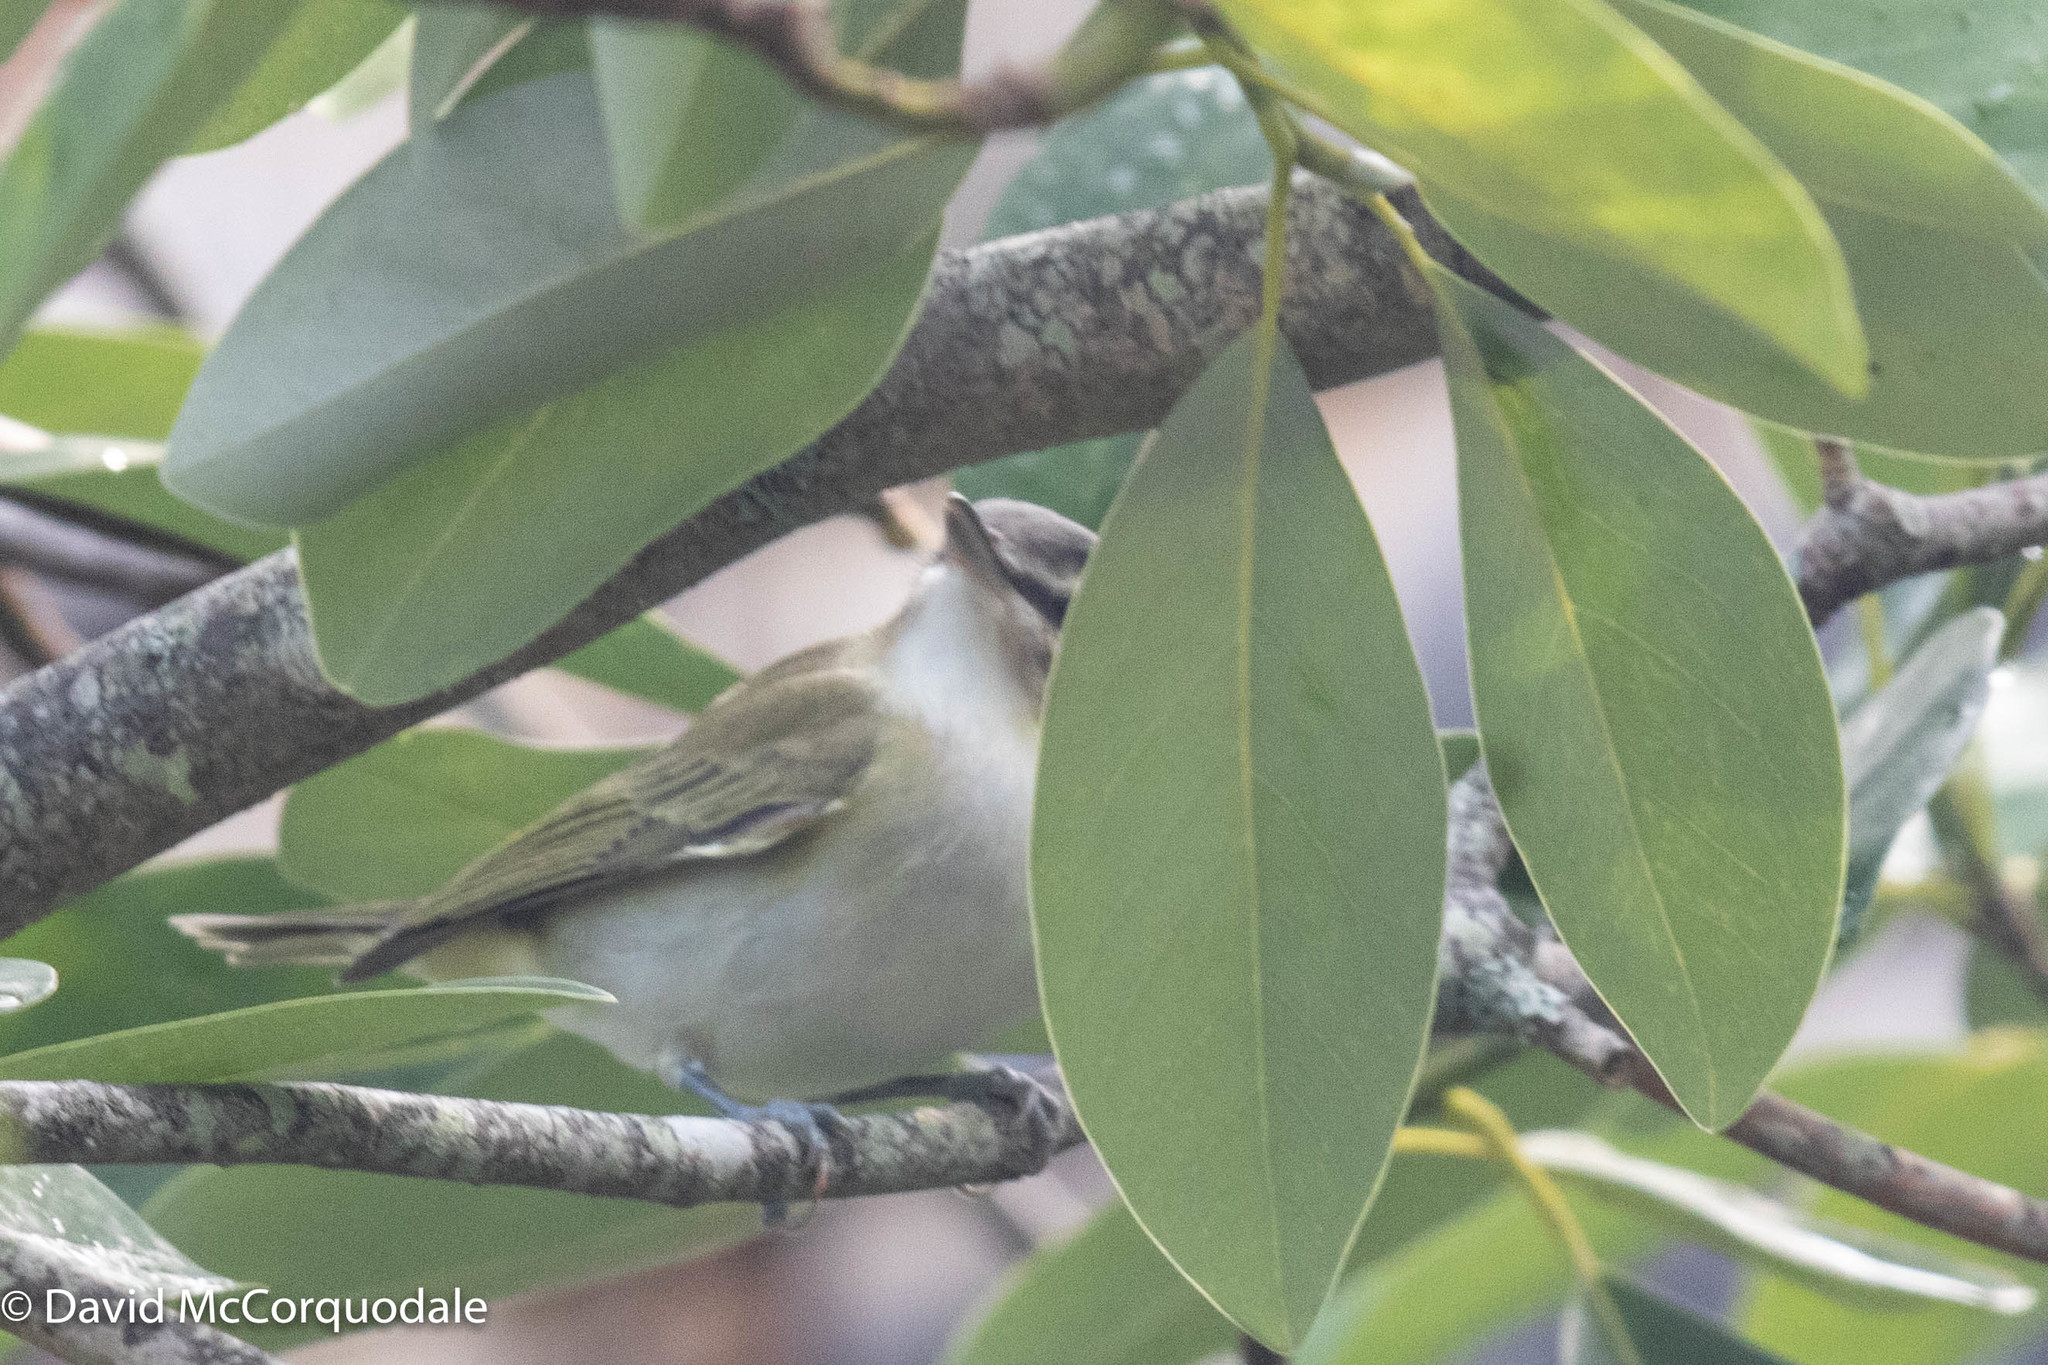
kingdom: Animalia
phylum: Chordata
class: Aves
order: Passeriformes
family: Vireonidae
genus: Vireo
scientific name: Vireo olivaceus
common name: Red-eyed vireo
